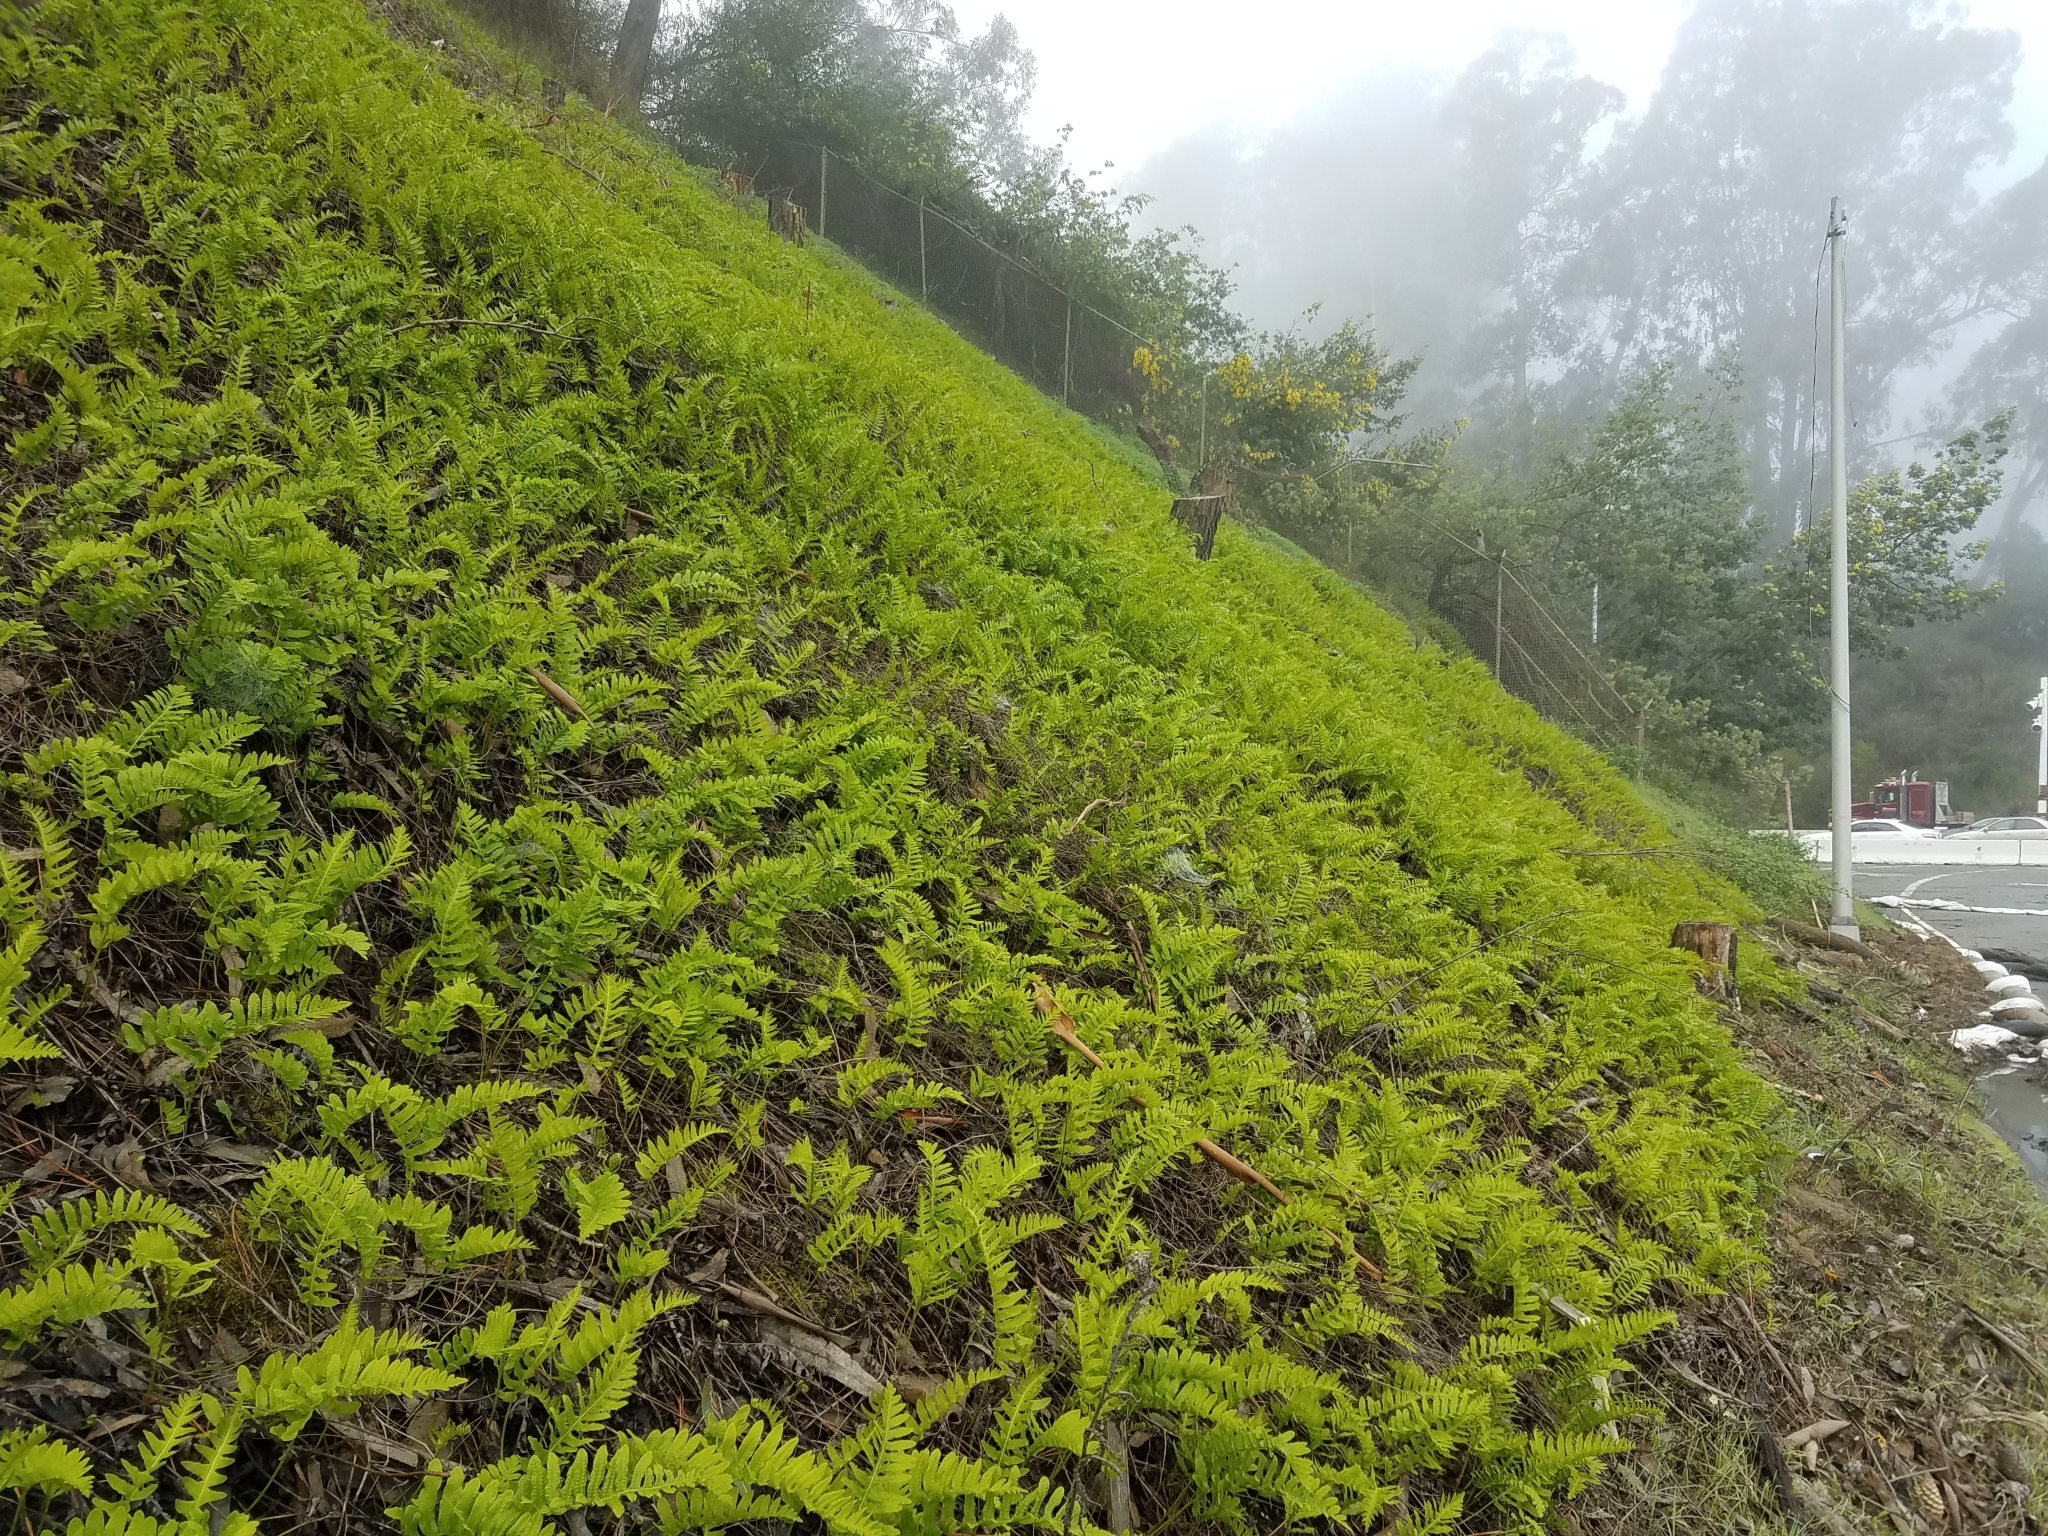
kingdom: Plantae
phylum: Tracheophyta
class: Polypodiopsida
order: Polypodiales
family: Polypodiaceae
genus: Polypodium
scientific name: Polypodium californicum
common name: California polypody
